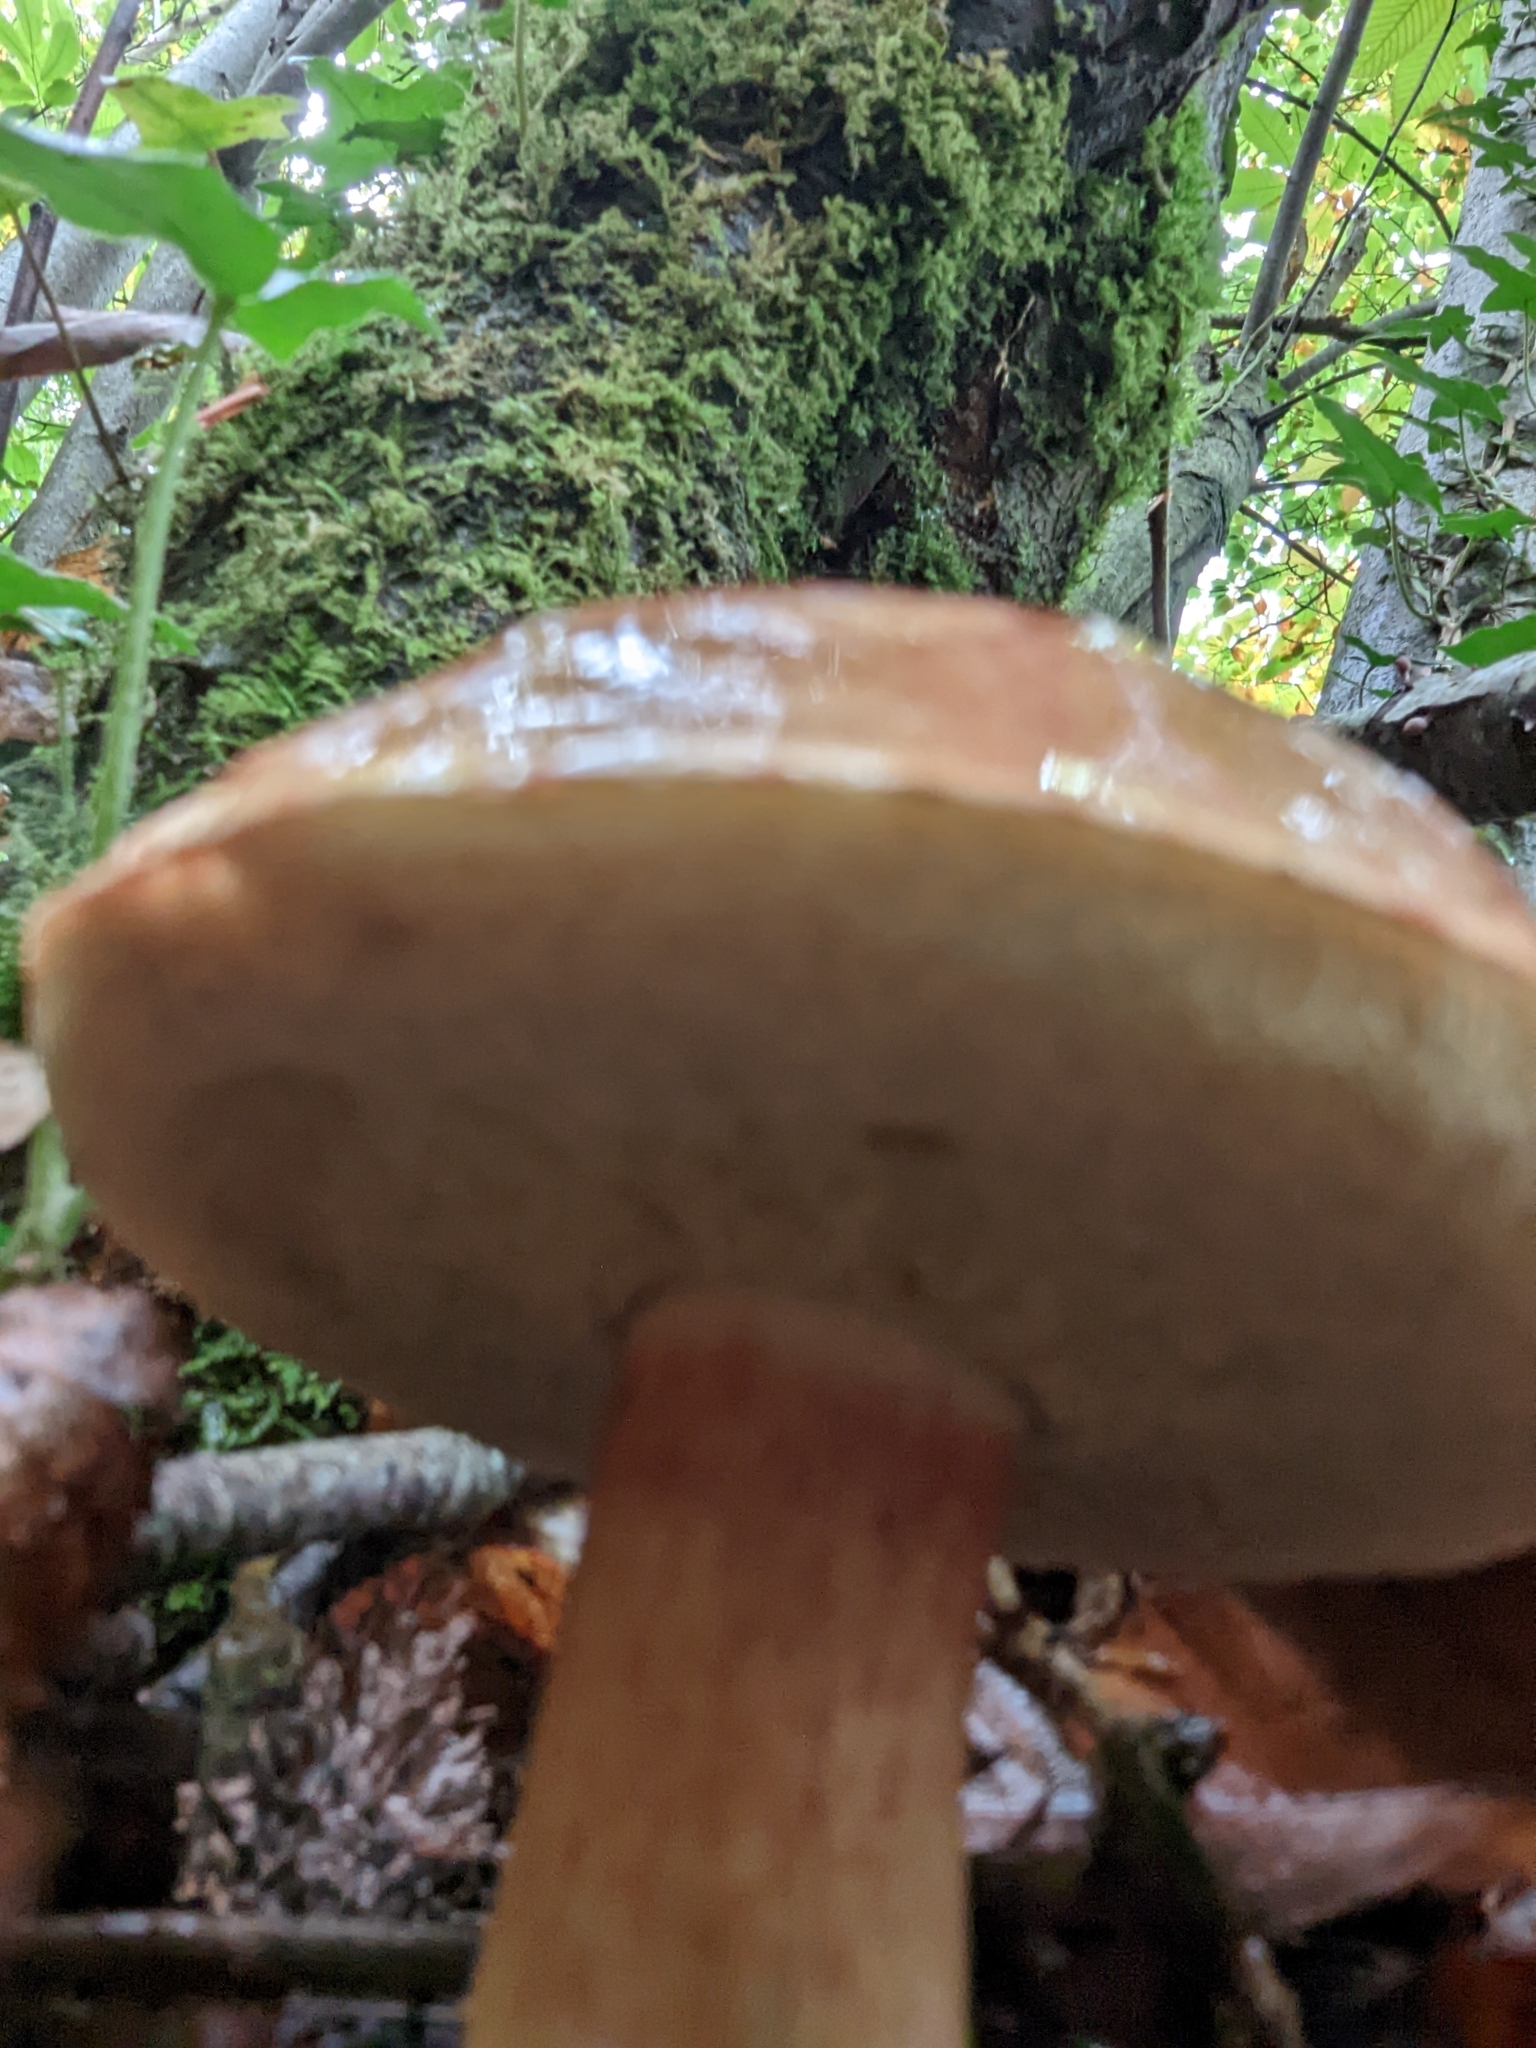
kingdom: Fungi
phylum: Basidiomycota
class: Agaricomycetes
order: Boletales
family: Boletaceae
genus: Imleria
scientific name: Imleria badia
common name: Bay bolete
